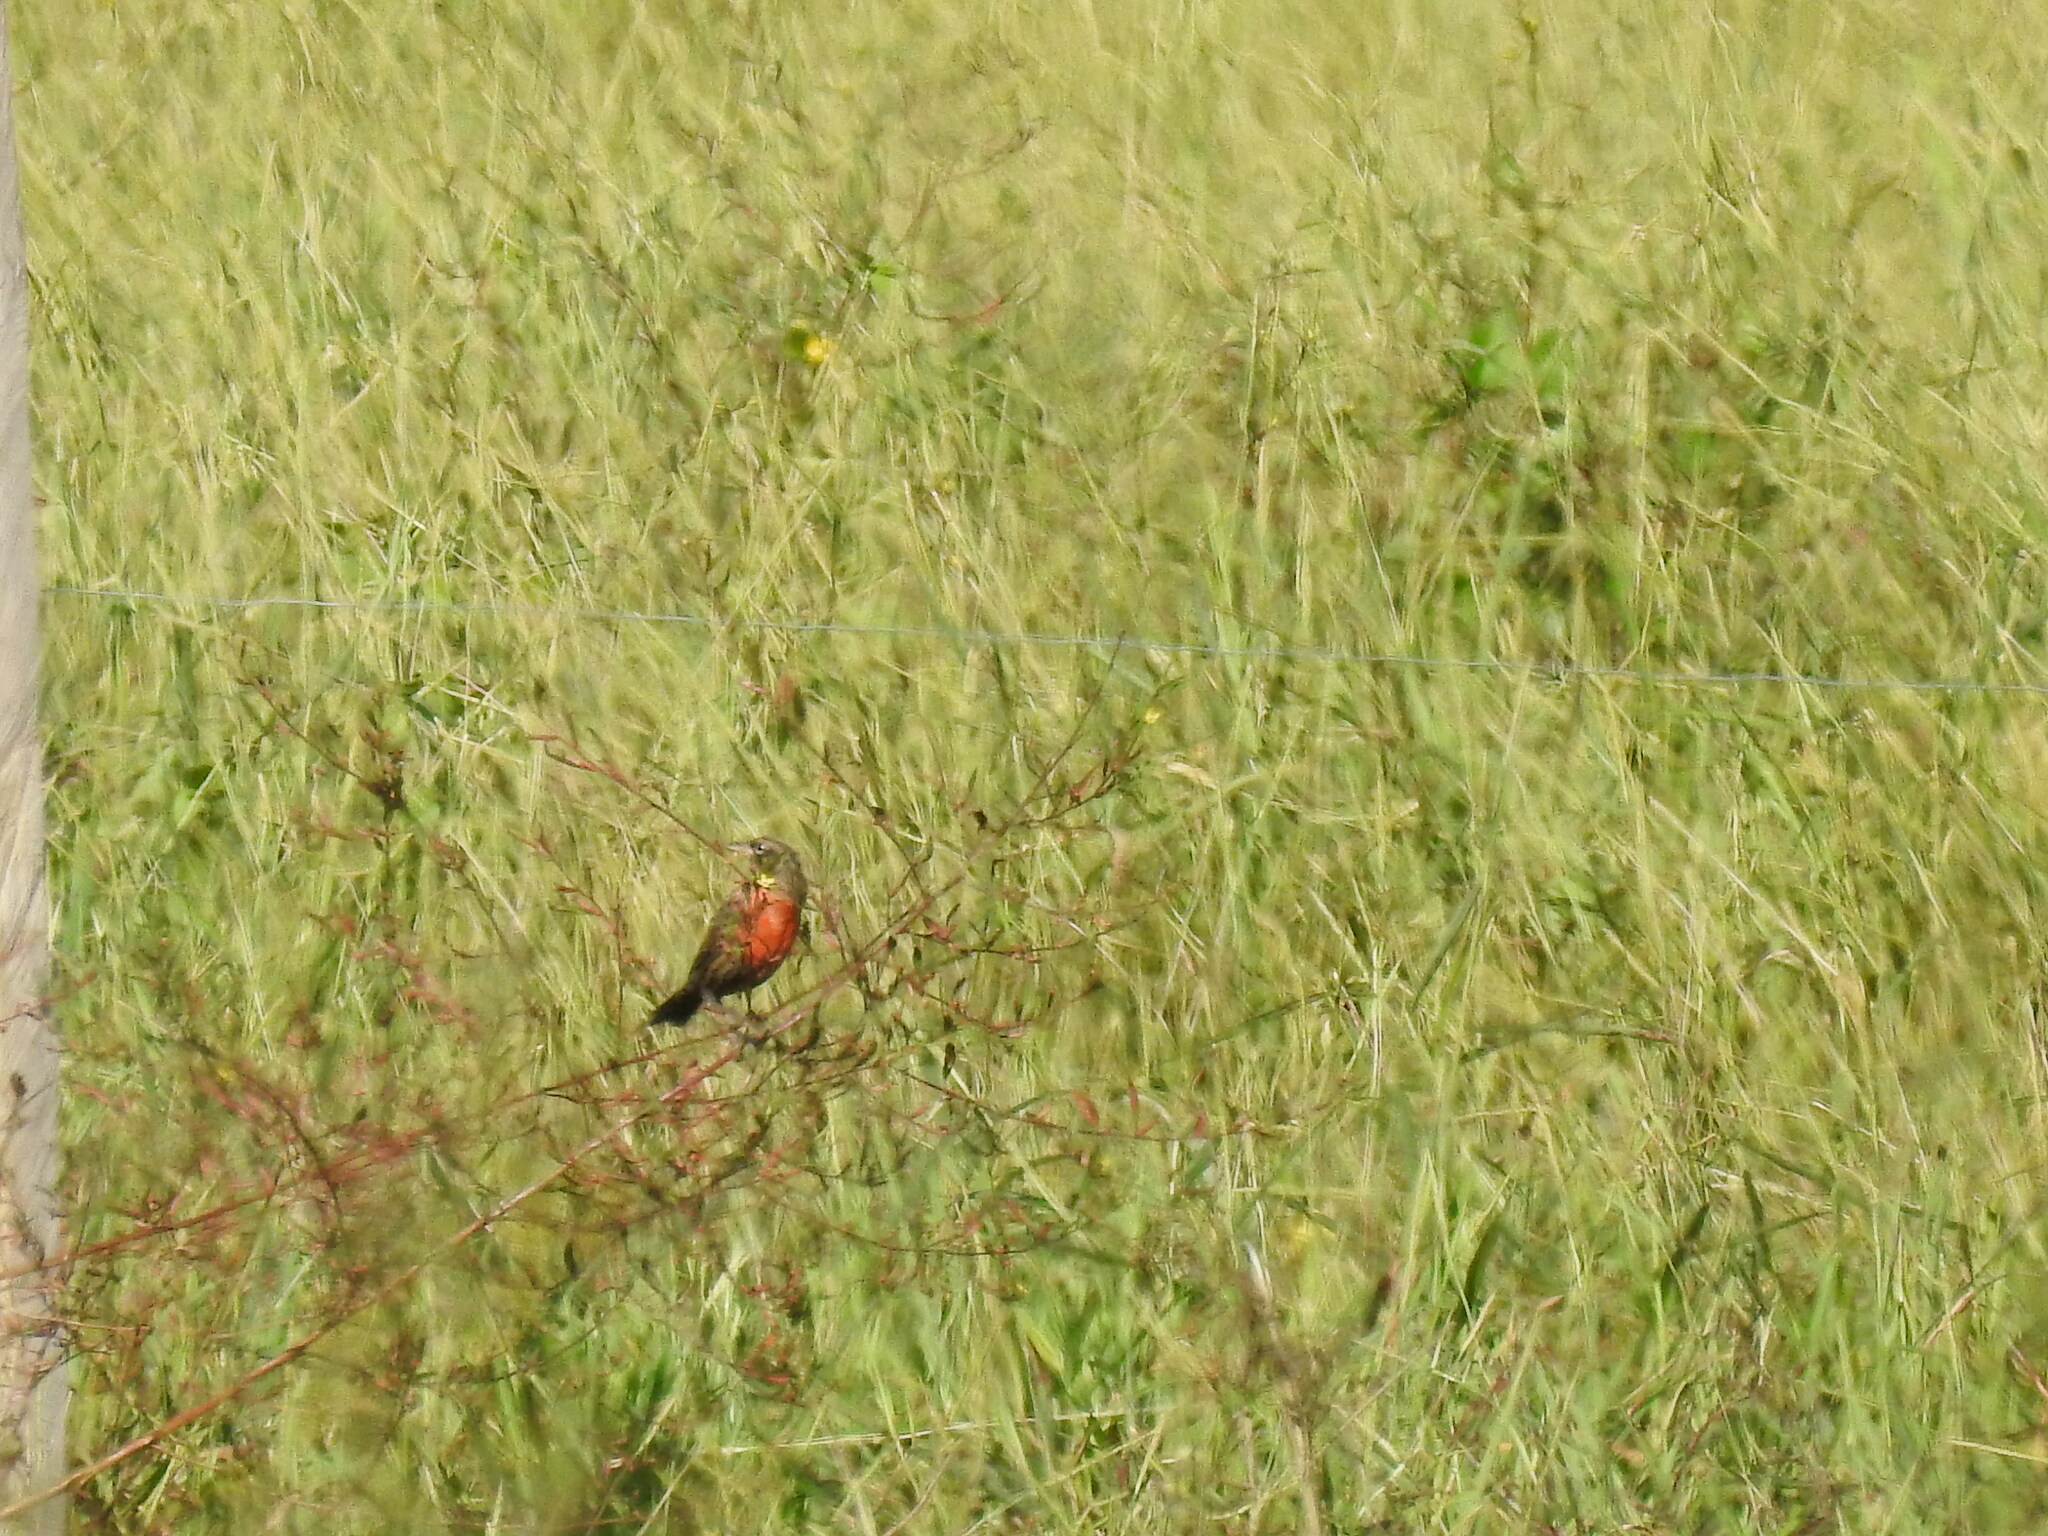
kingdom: Animalia
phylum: Chordata
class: Aves
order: Passeriformes
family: Icteridae
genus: Sturnella
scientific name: Sturnella militaris
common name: Red-breasted blackbird
